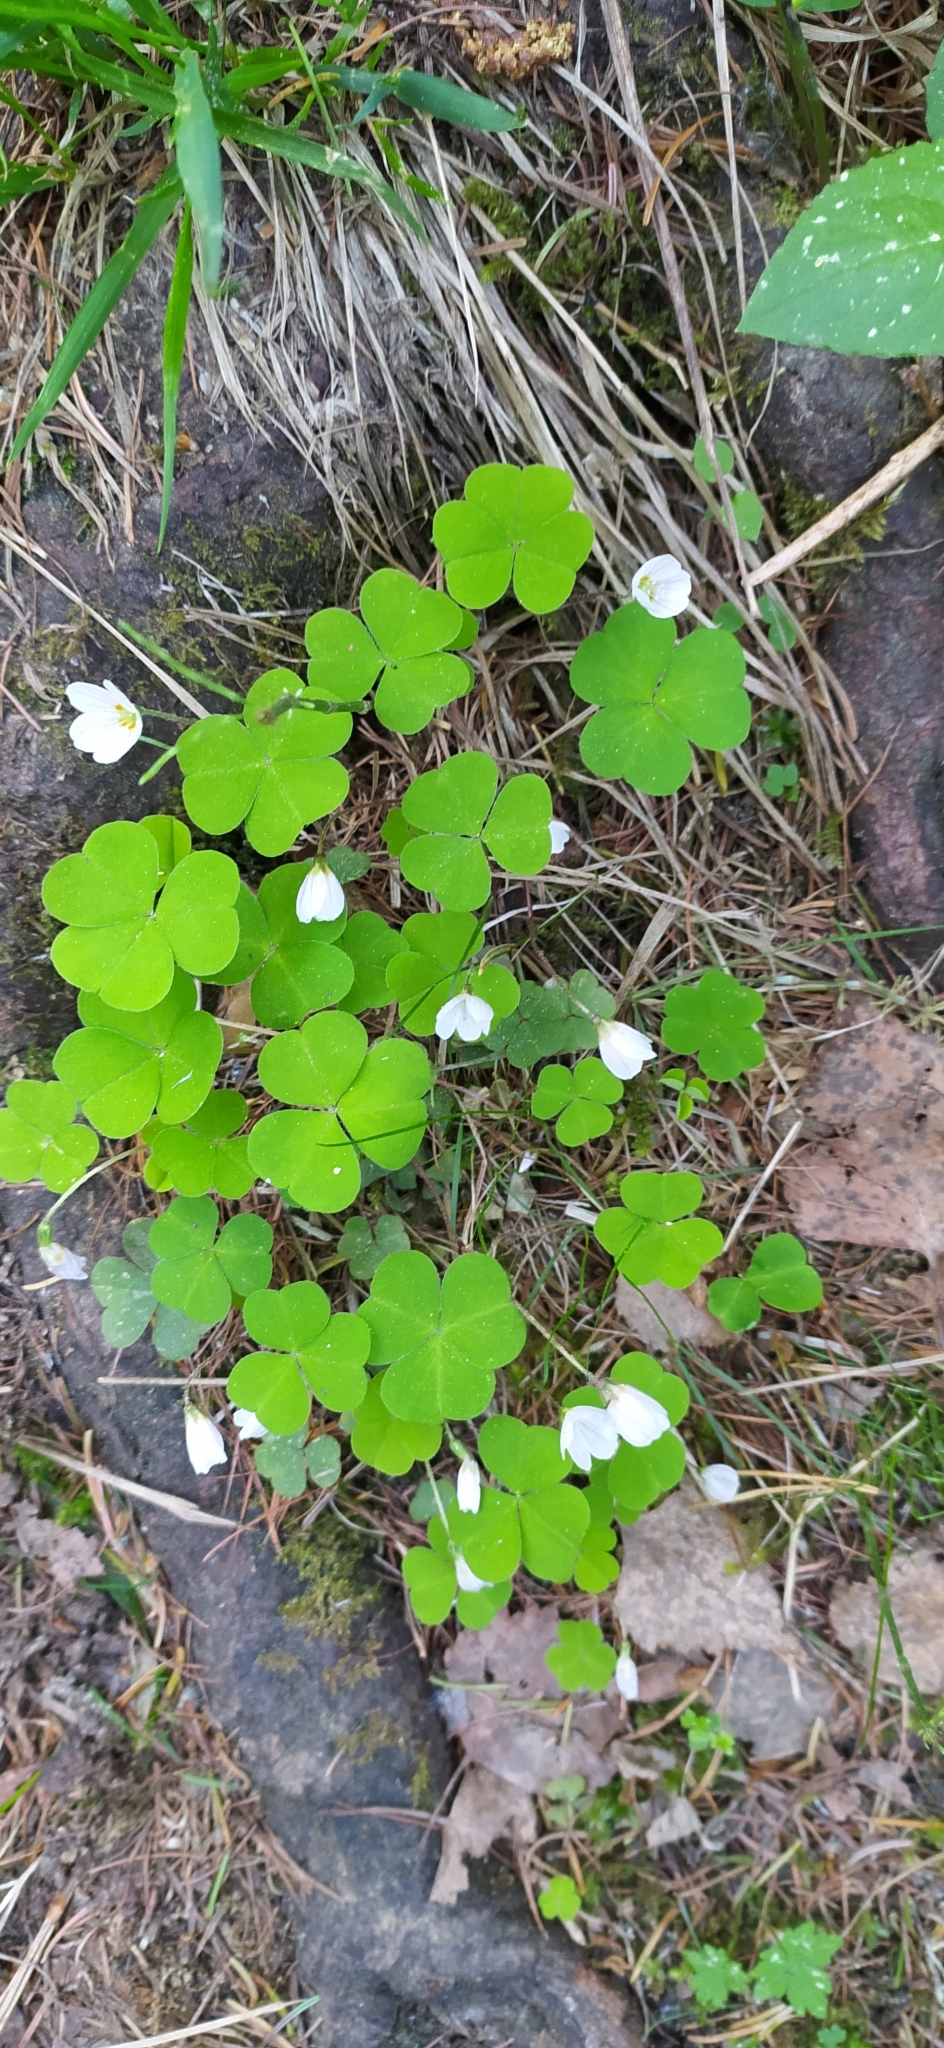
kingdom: Plantae
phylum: Tracheophyta
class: Magnoliopsida
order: Oxalidales
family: Oxalidaceae
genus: Oxalis
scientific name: Oxalis acetosella
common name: Wood-sorrel
